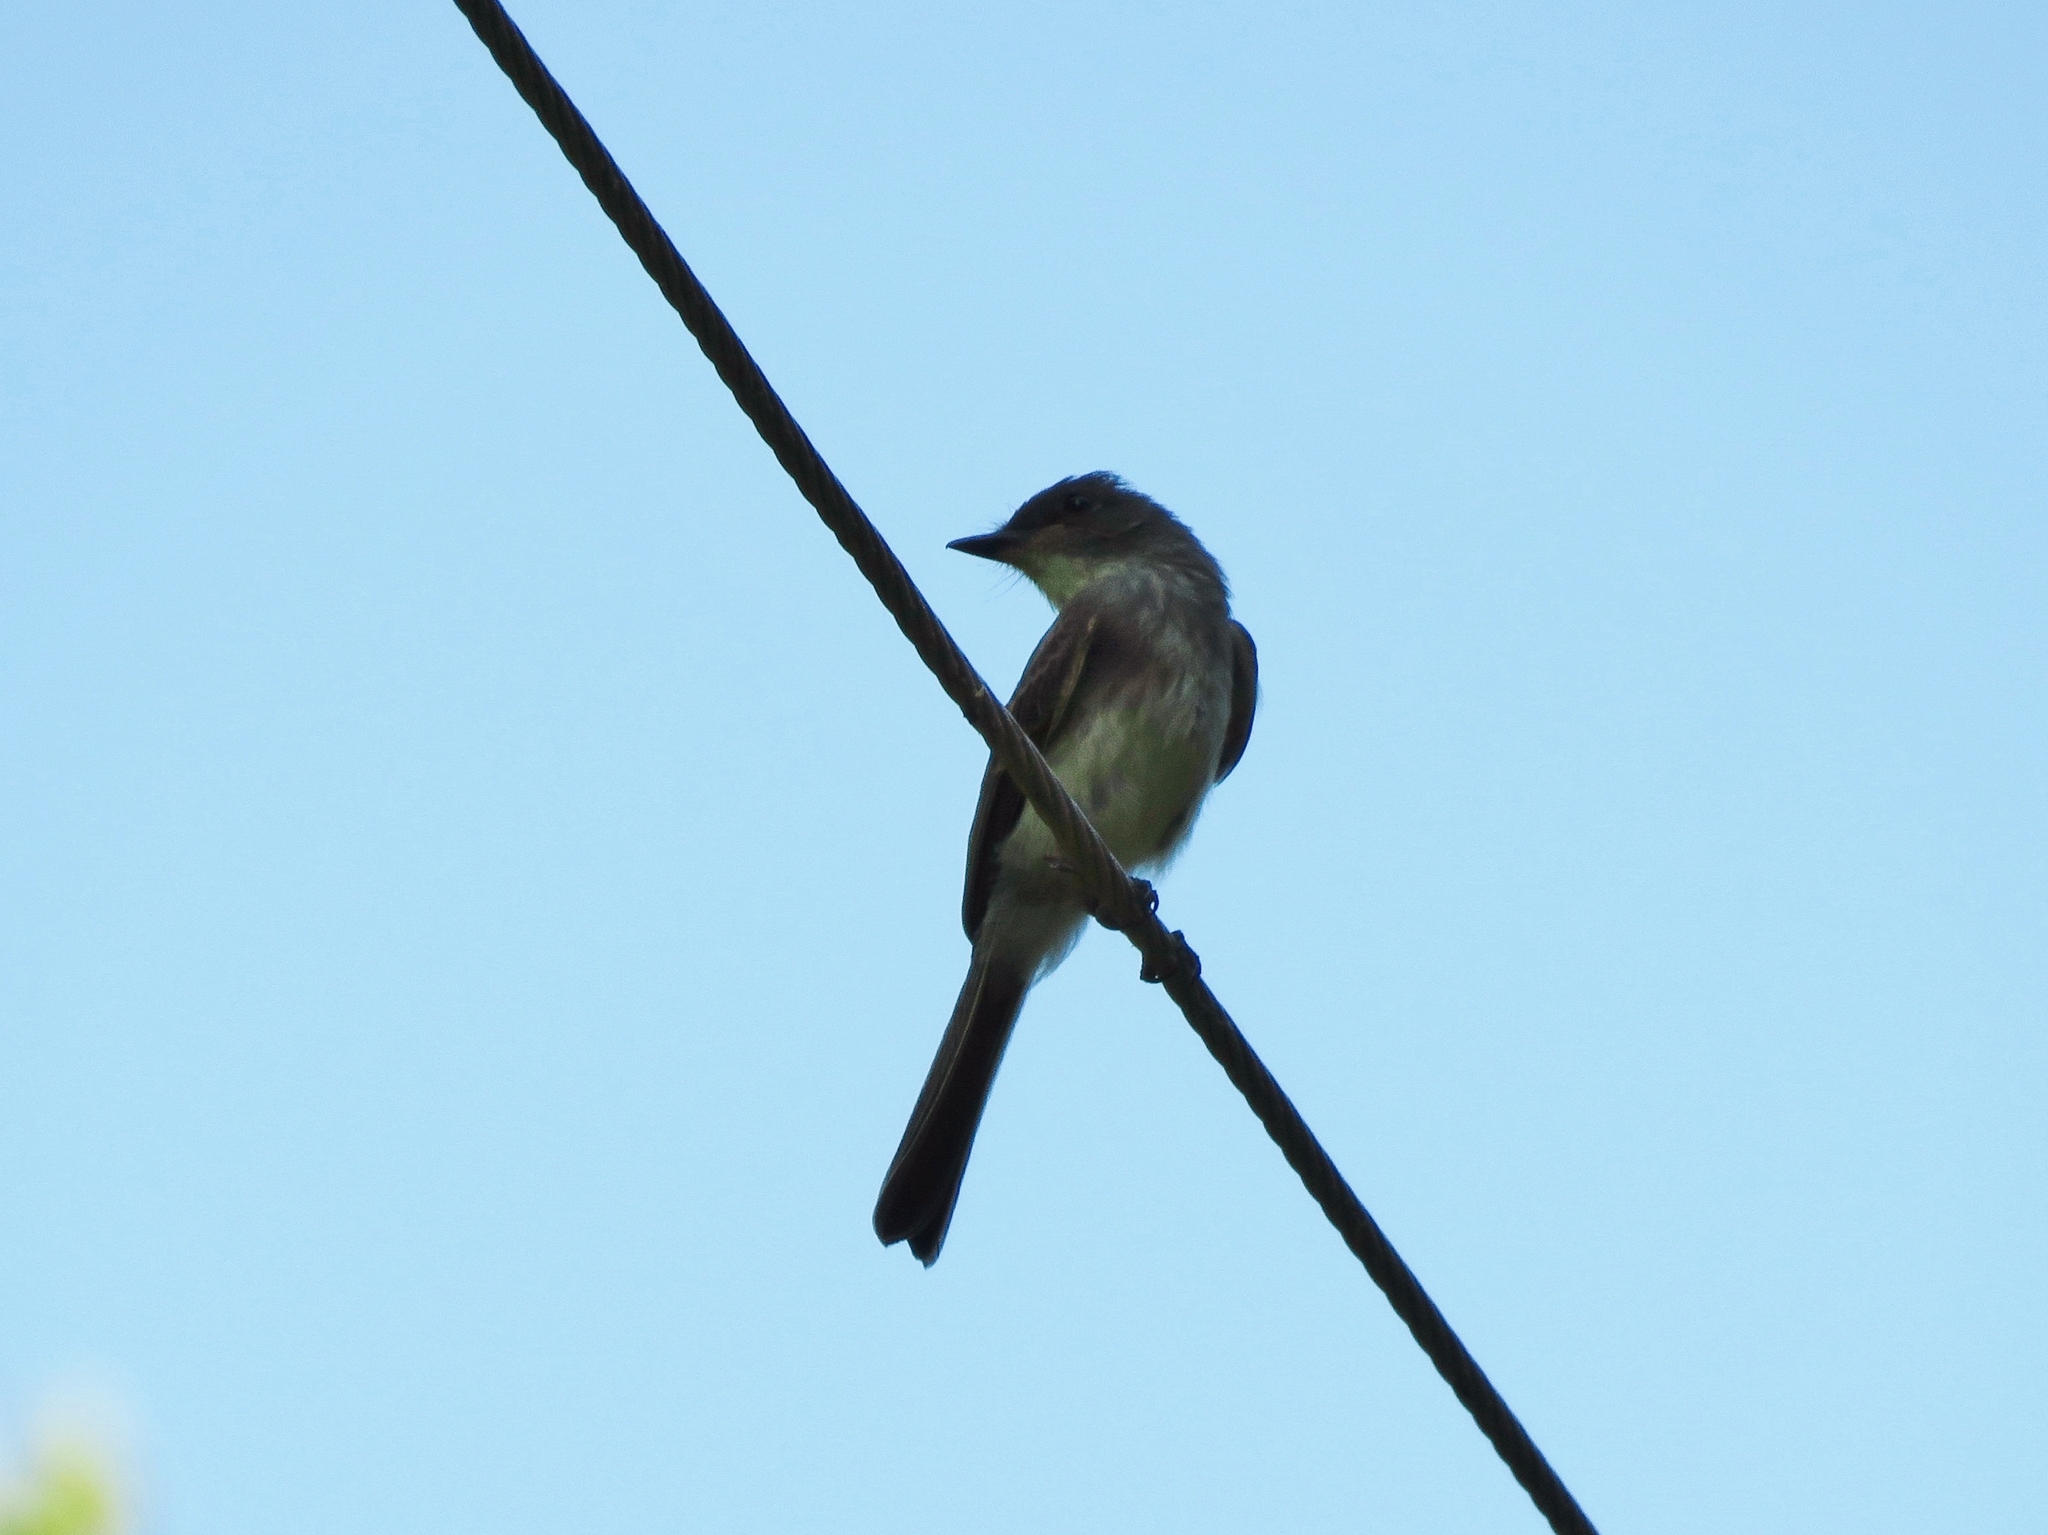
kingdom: Animalia
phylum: Chordata
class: Aves
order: Passeriformes
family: Tyrannidae
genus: Sayornis
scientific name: Sayornis phoebe
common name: Eastern phoebe
